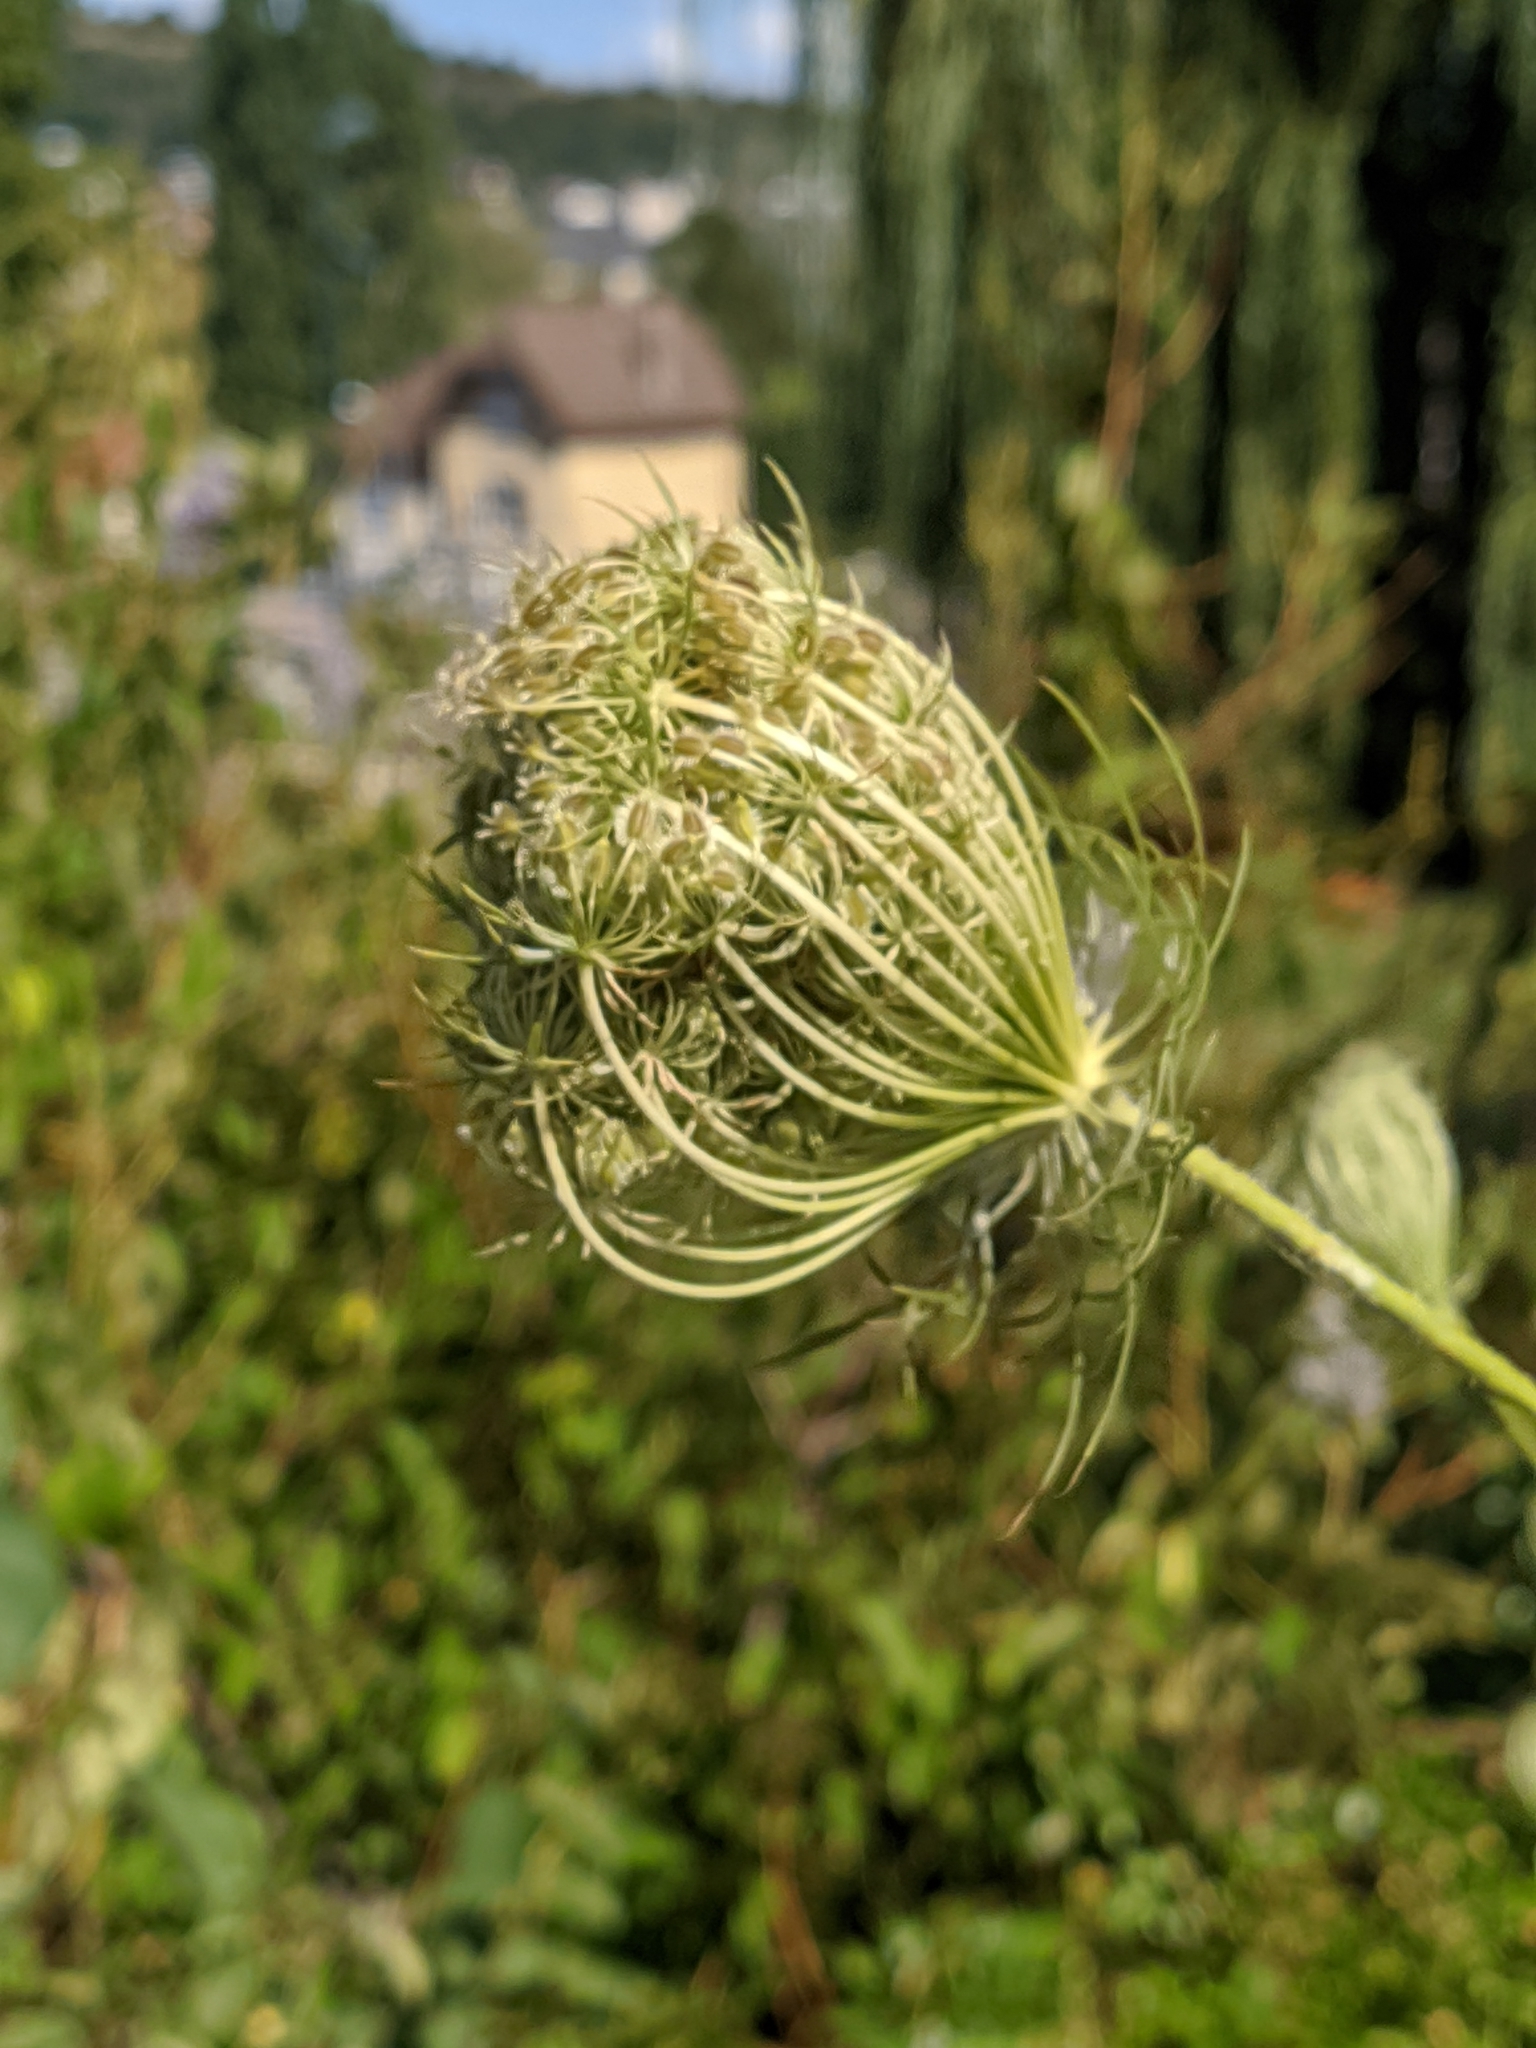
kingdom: Plantae
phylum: Tracheophyta
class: Magnoliopsida
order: Apiales
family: Apiaceae
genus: Daucus
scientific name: Daucus carota
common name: Wild carrot
